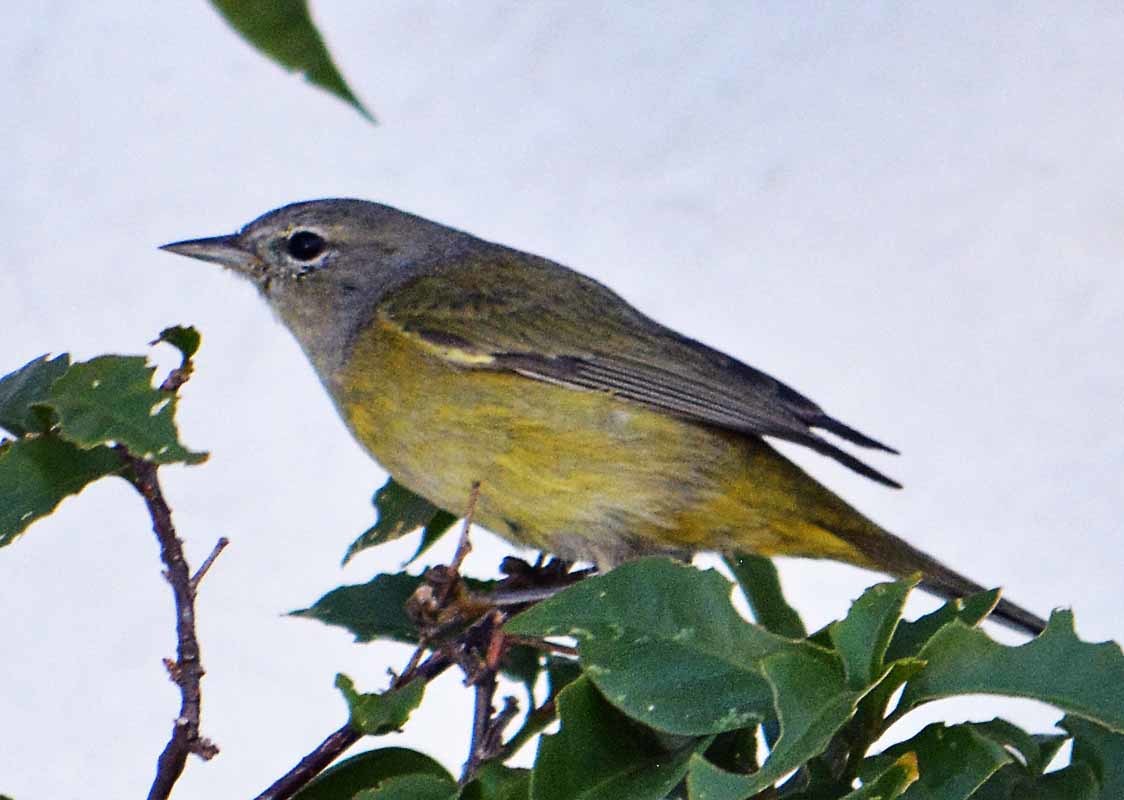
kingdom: Animalia
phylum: Chordata
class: Aves
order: Passeriformes
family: Parulidae
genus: Leiothlypis
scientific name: Leiothlypis celata
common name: Orange-crowned warbler
